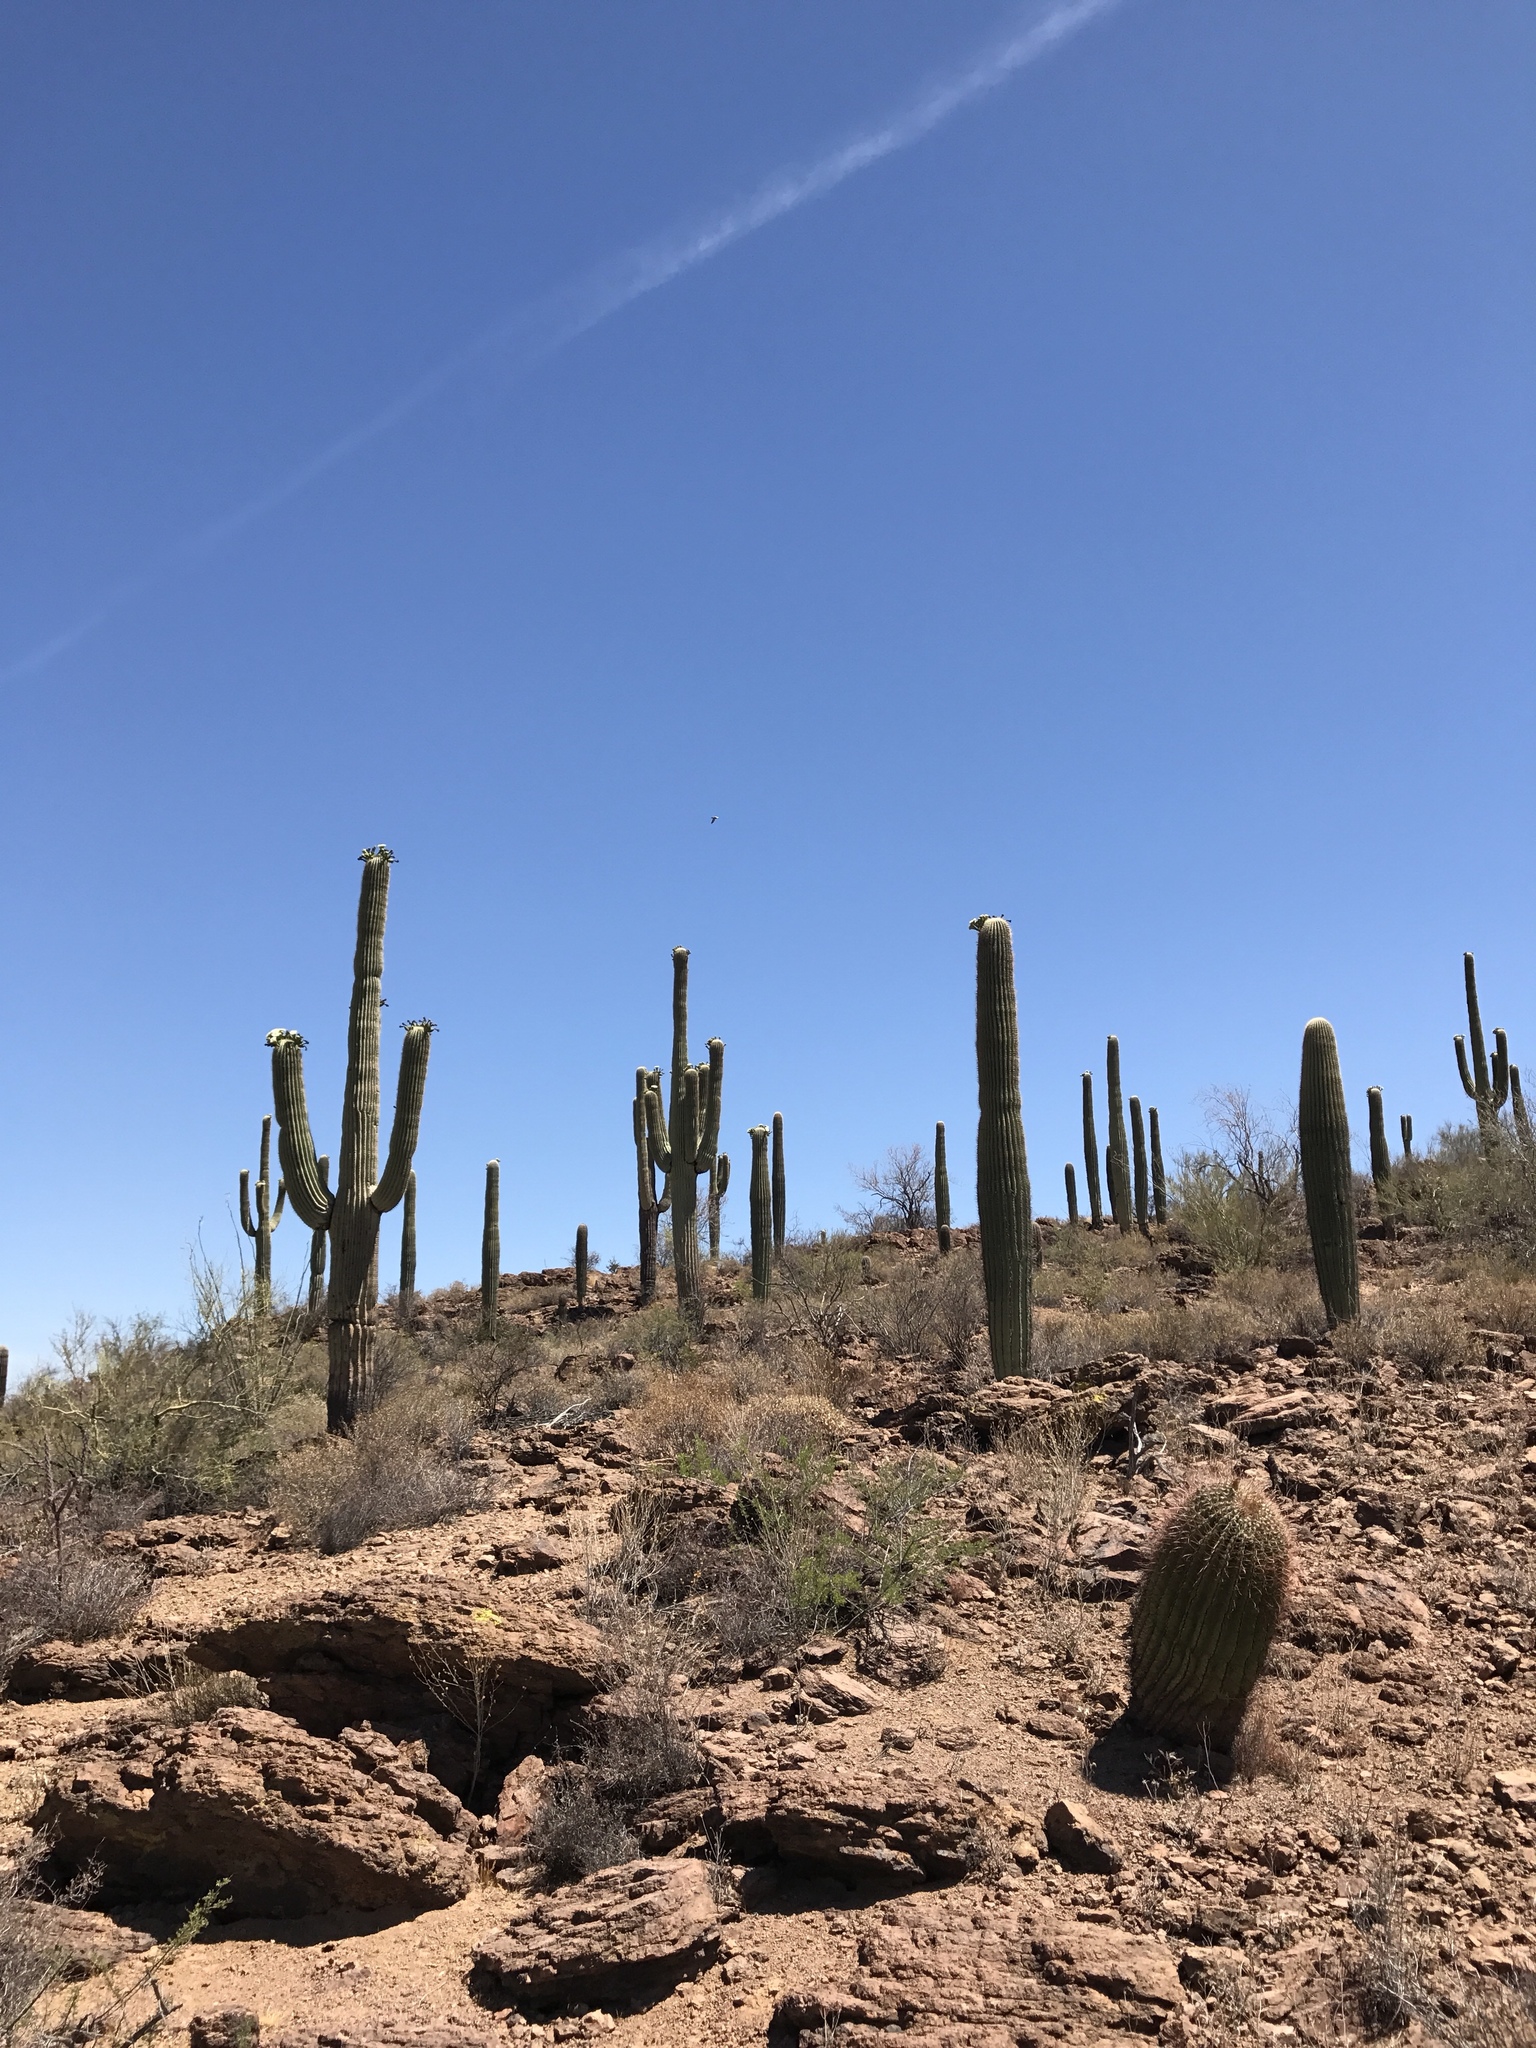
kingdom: Plantae
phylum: Tracheophyta
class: Magnoliopsida
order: Caryophyllales
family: Cactaceae
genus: Carnegiea
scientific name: Carnegiea gigantea
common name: Saguaro
